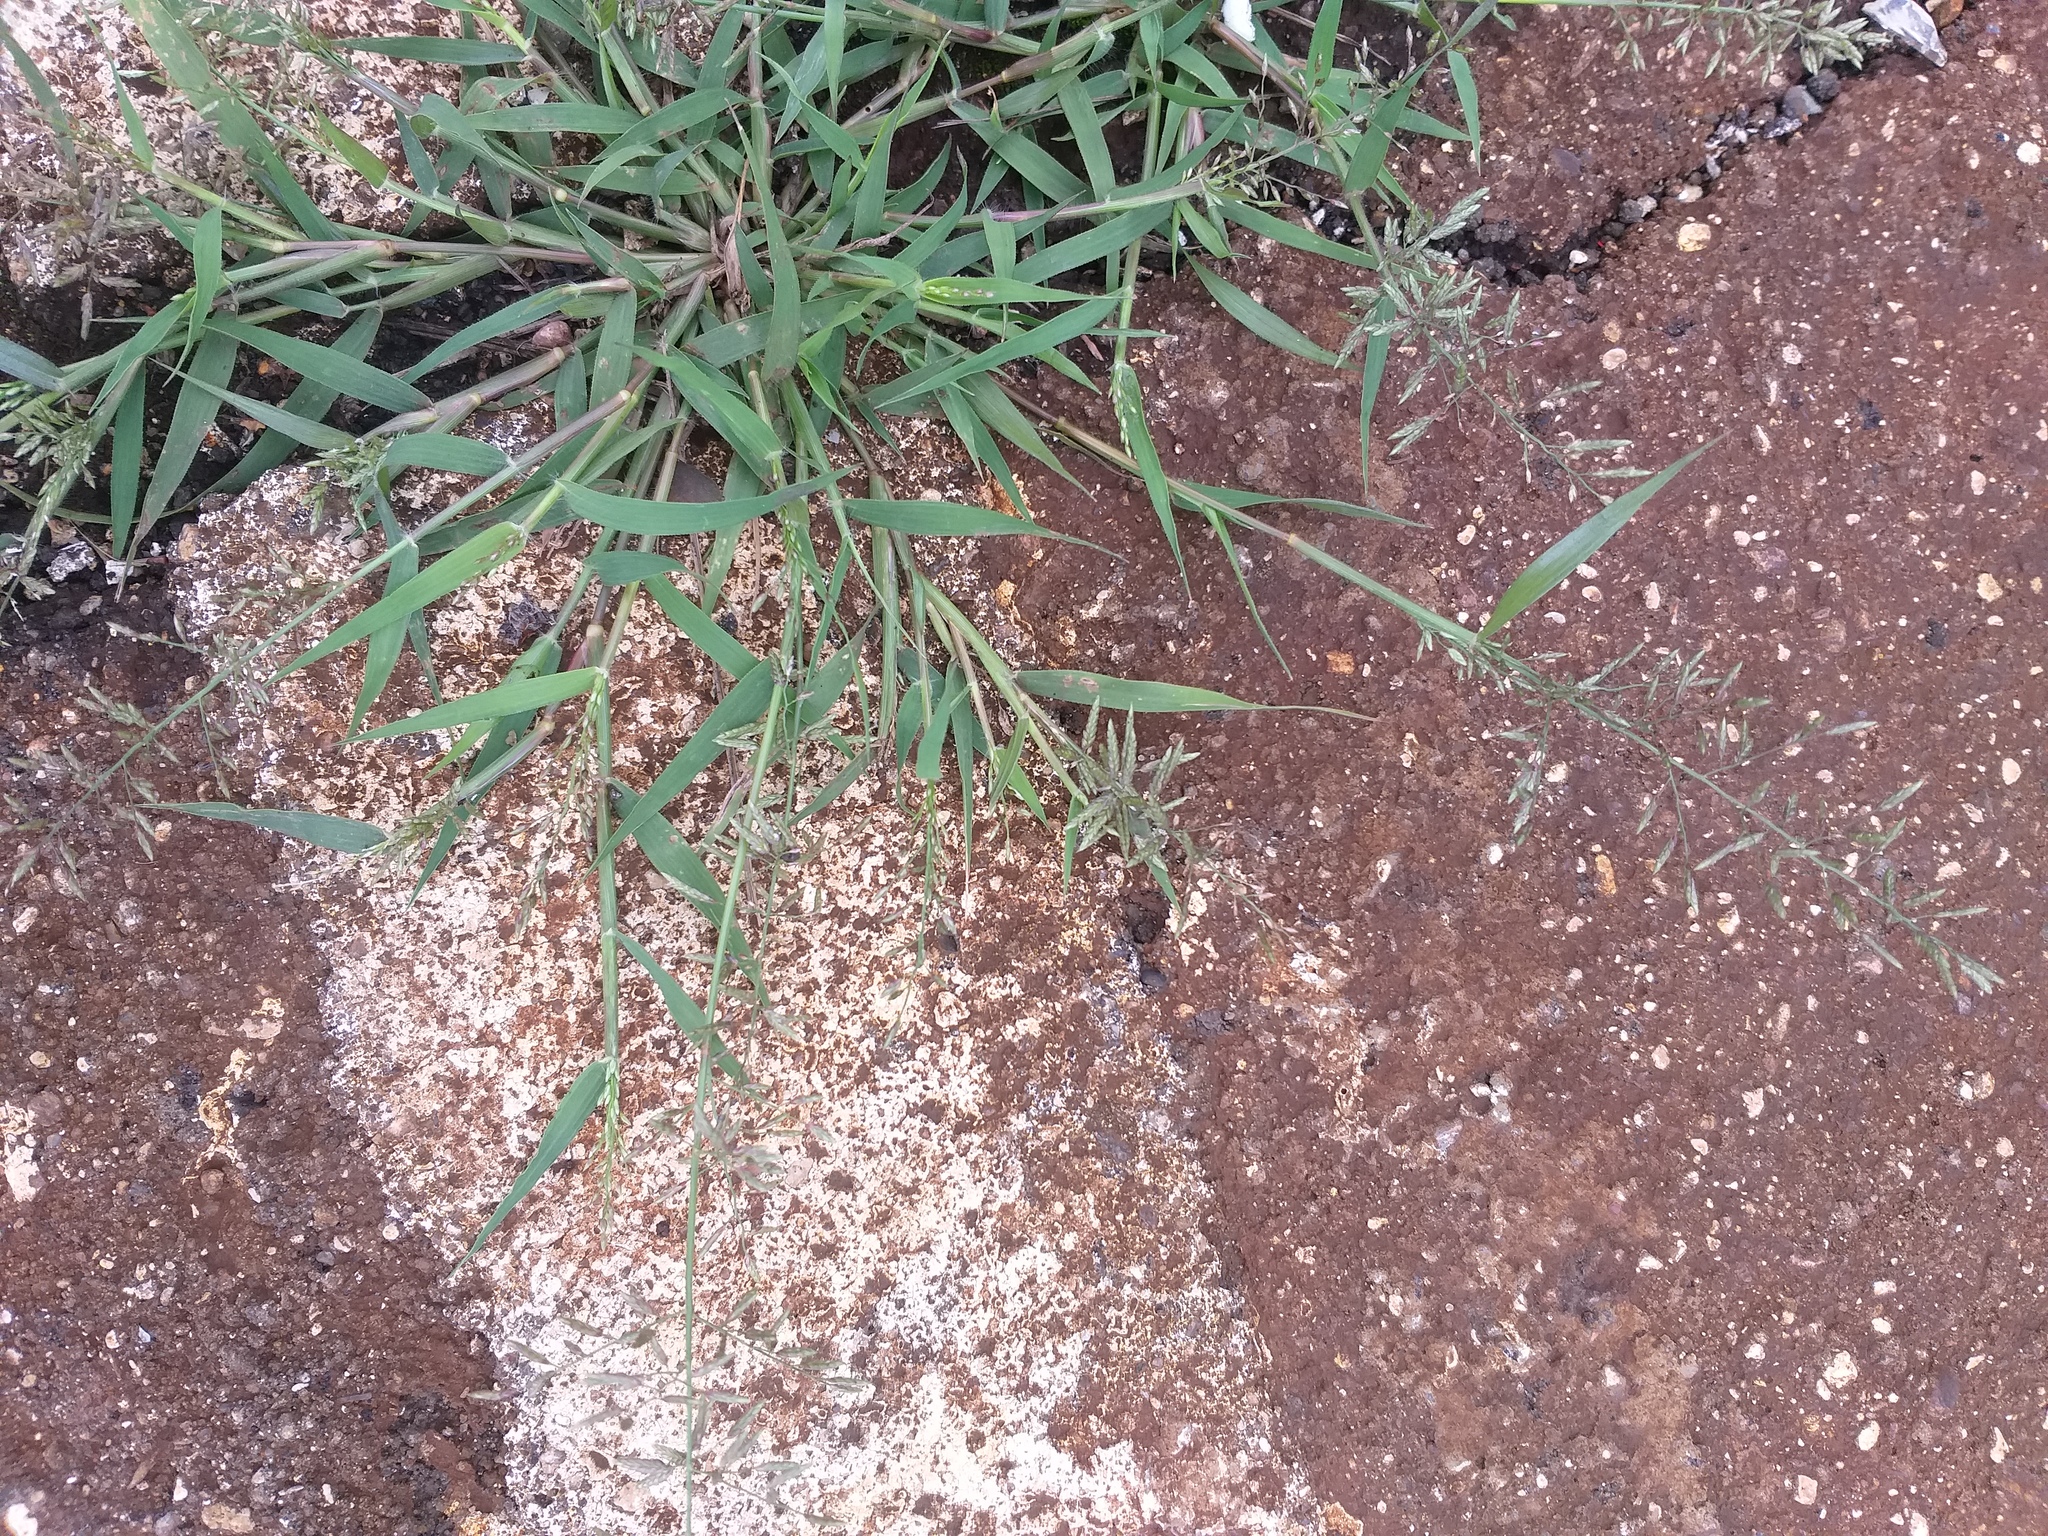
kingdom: Plantae
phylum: Tracheophyta
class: Liliopsida
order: Poales
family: Poaceae
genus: Eragrostis
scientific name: Eragrostis minor
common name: Small love-grass
